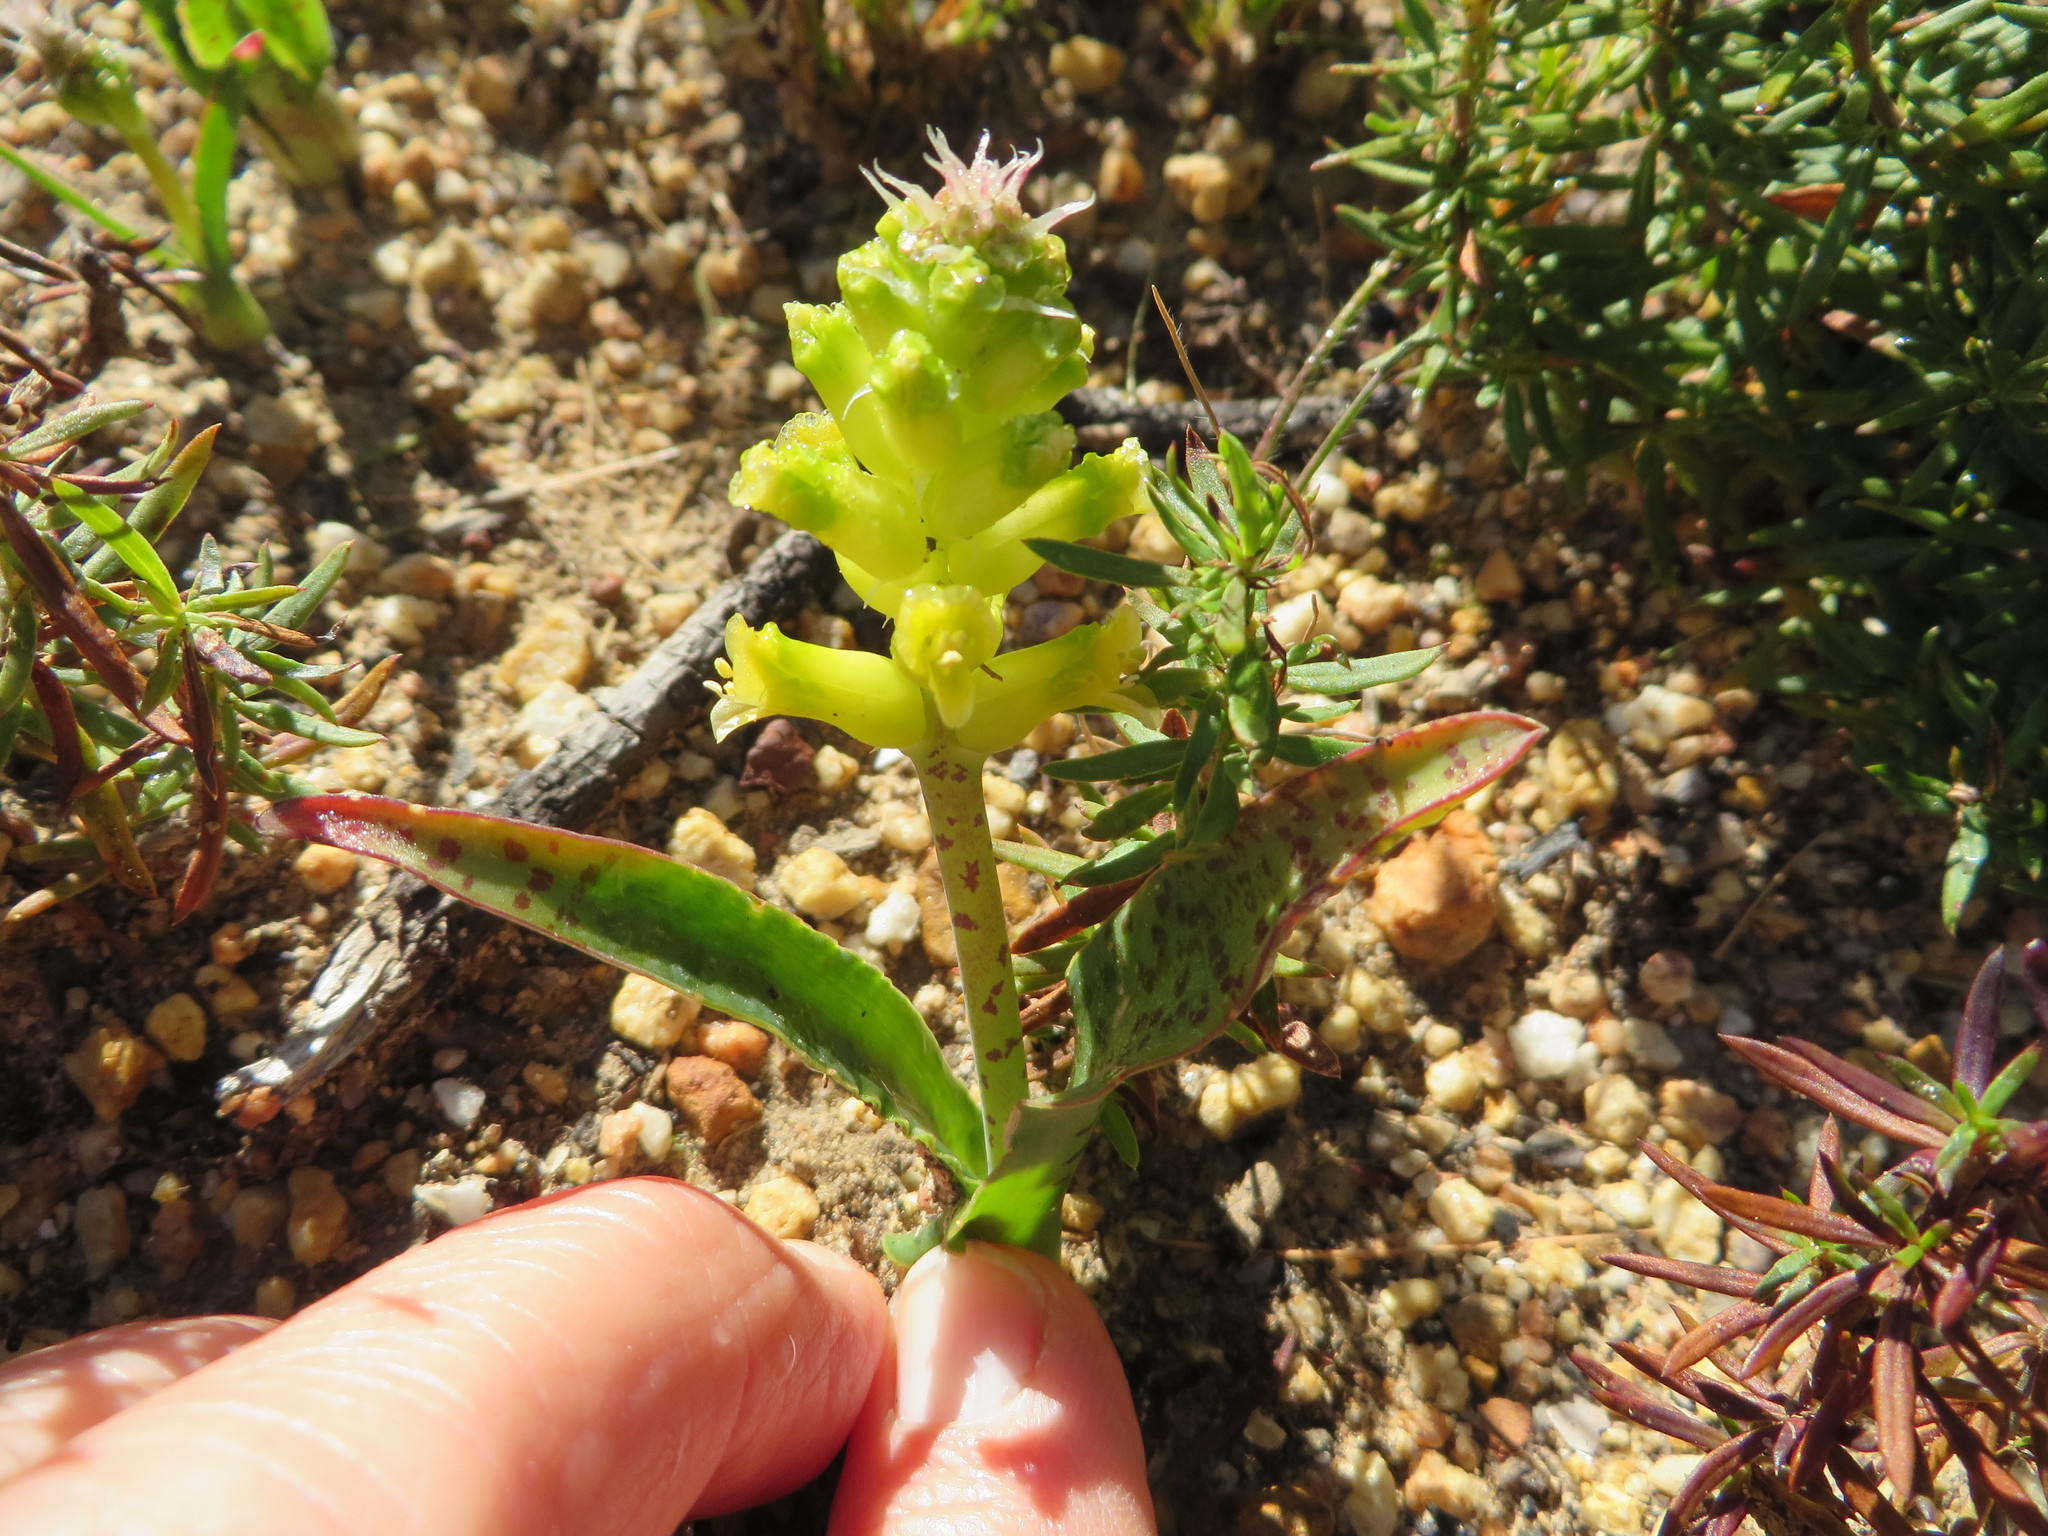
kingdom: Plantae
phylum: Tracheophyta
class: Liliopsida
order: Asparagales
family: Asparagaceae
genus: Lachenalia
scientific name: Lachenalia lutea
